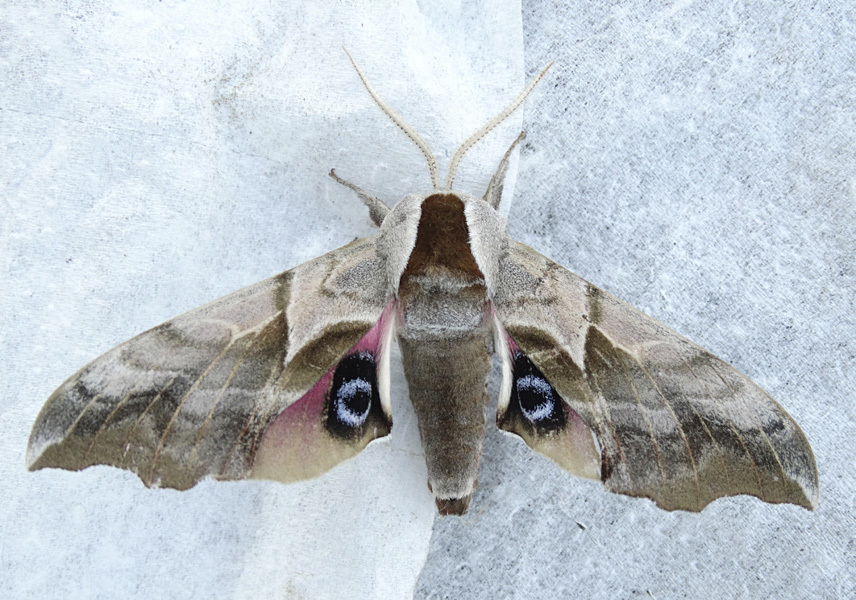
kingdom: Animalia
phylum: Arthropoda
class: Insecta
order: Lepidoptera
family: Sphingidae
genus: Smerinthus
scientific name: Smerinthus cerisyi
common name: Cerisy's sphinx moth
